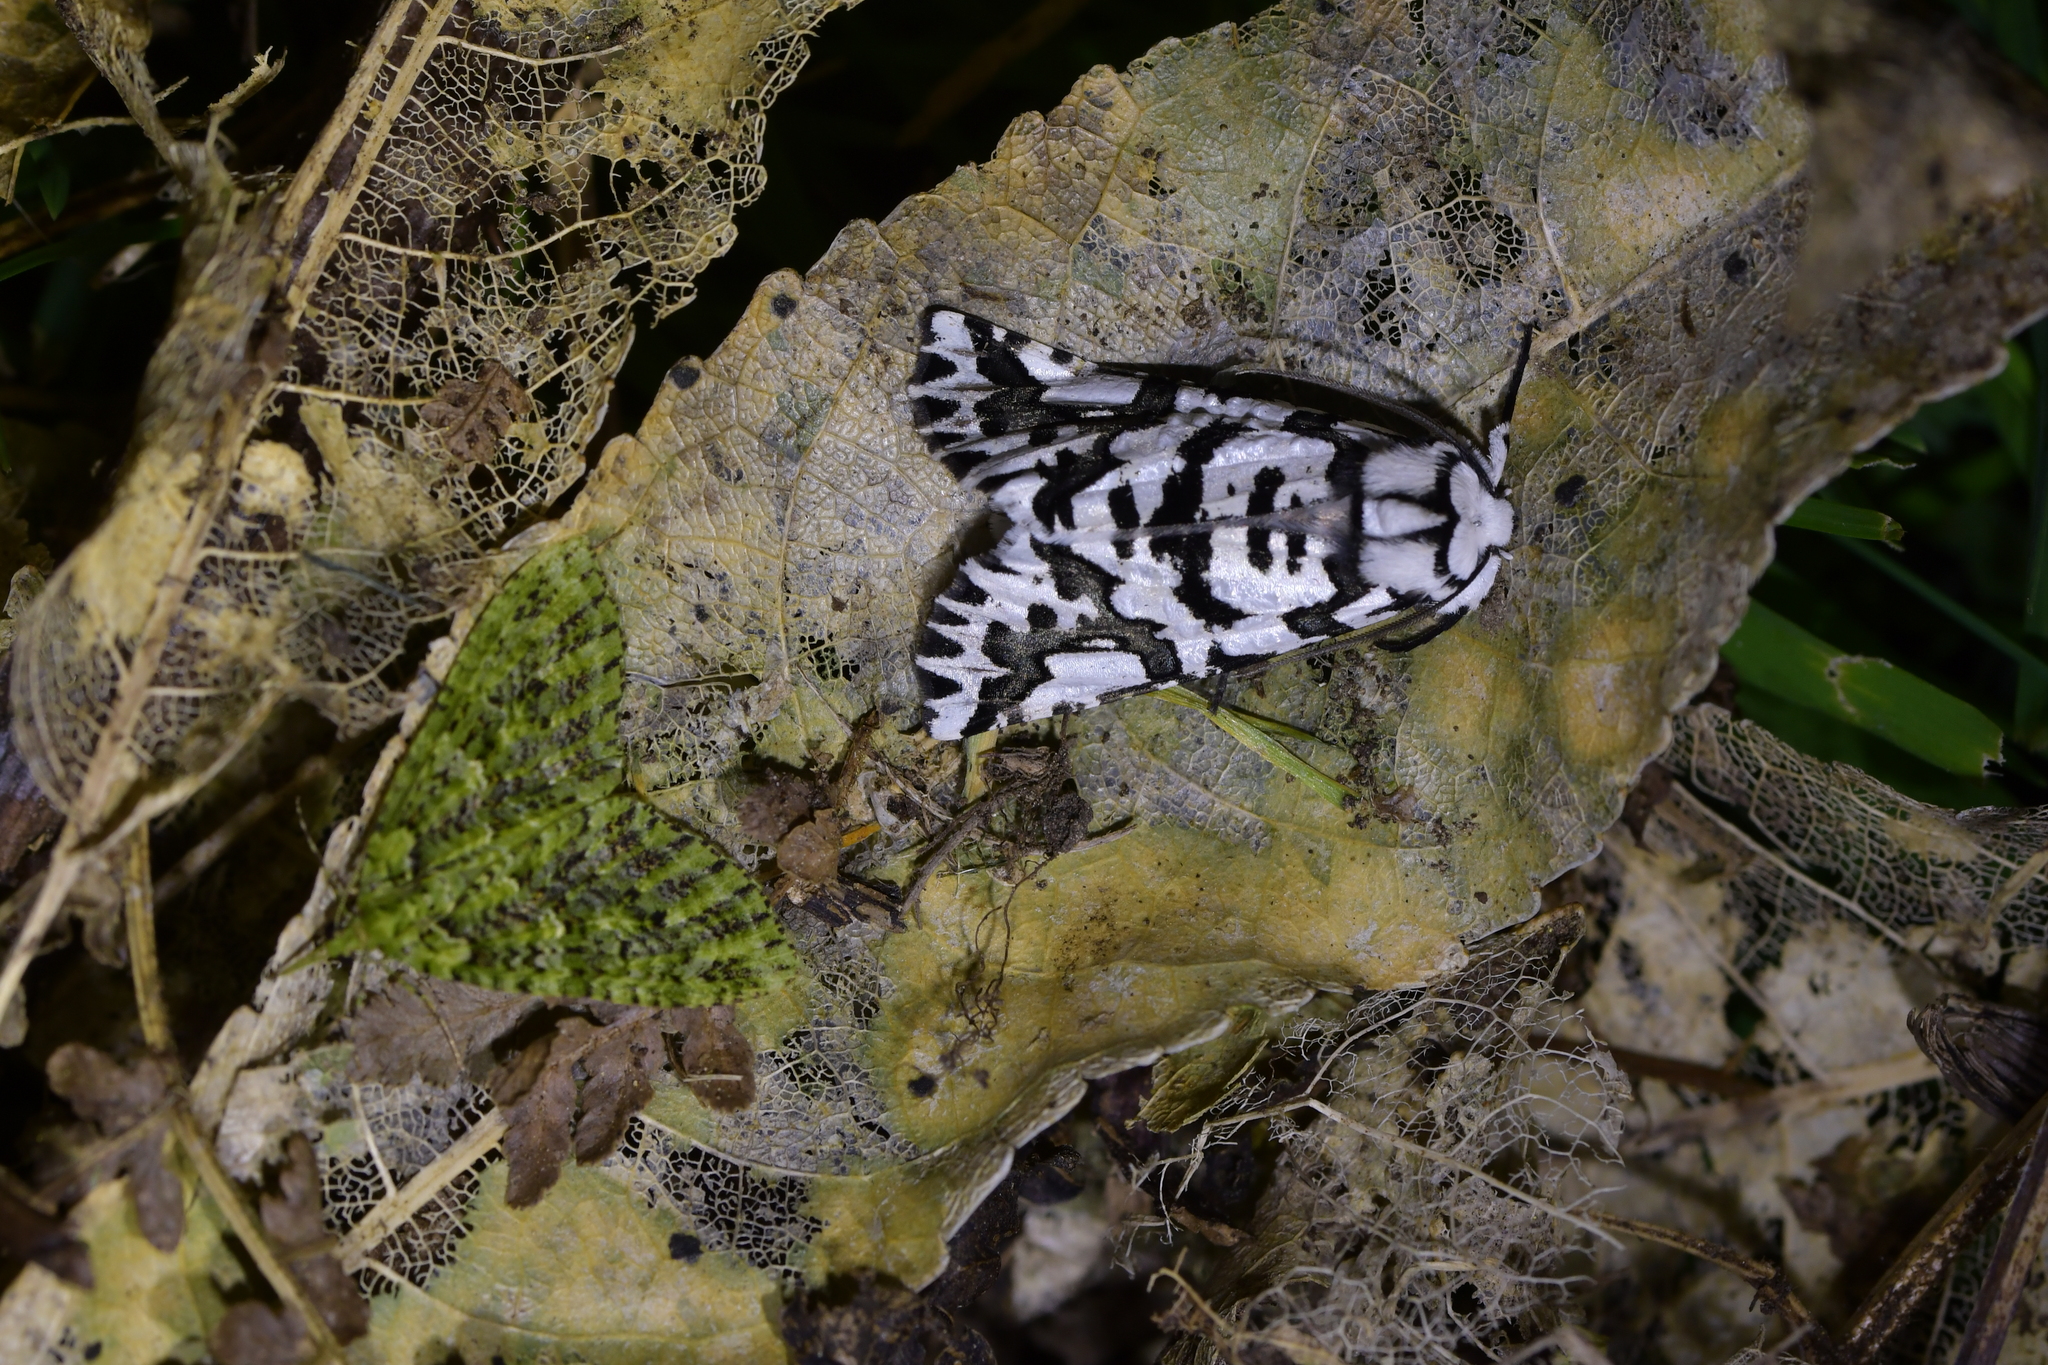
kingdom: Animalia
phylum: Arthropoda
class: Insecta
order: Lepidoptera
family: Geometridae
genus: Declana
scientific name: Declana
